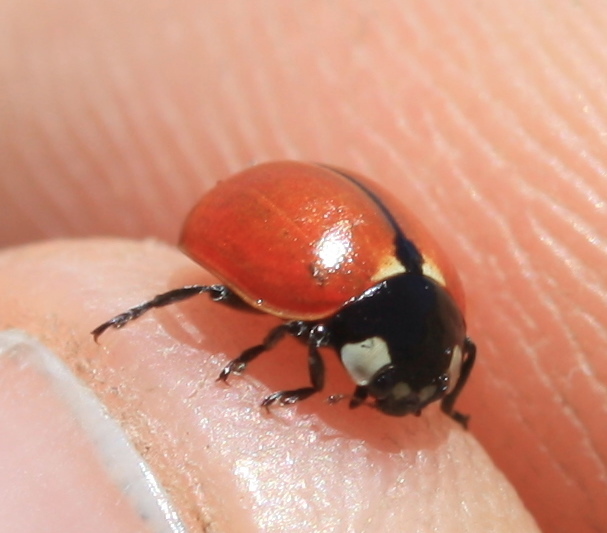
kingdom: Animalia
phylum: Arthropoda
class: Insecta
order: Coleoptera
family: Coccinellidae
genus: Coccinella
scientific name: Coccinella californica
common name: Lady beetle
